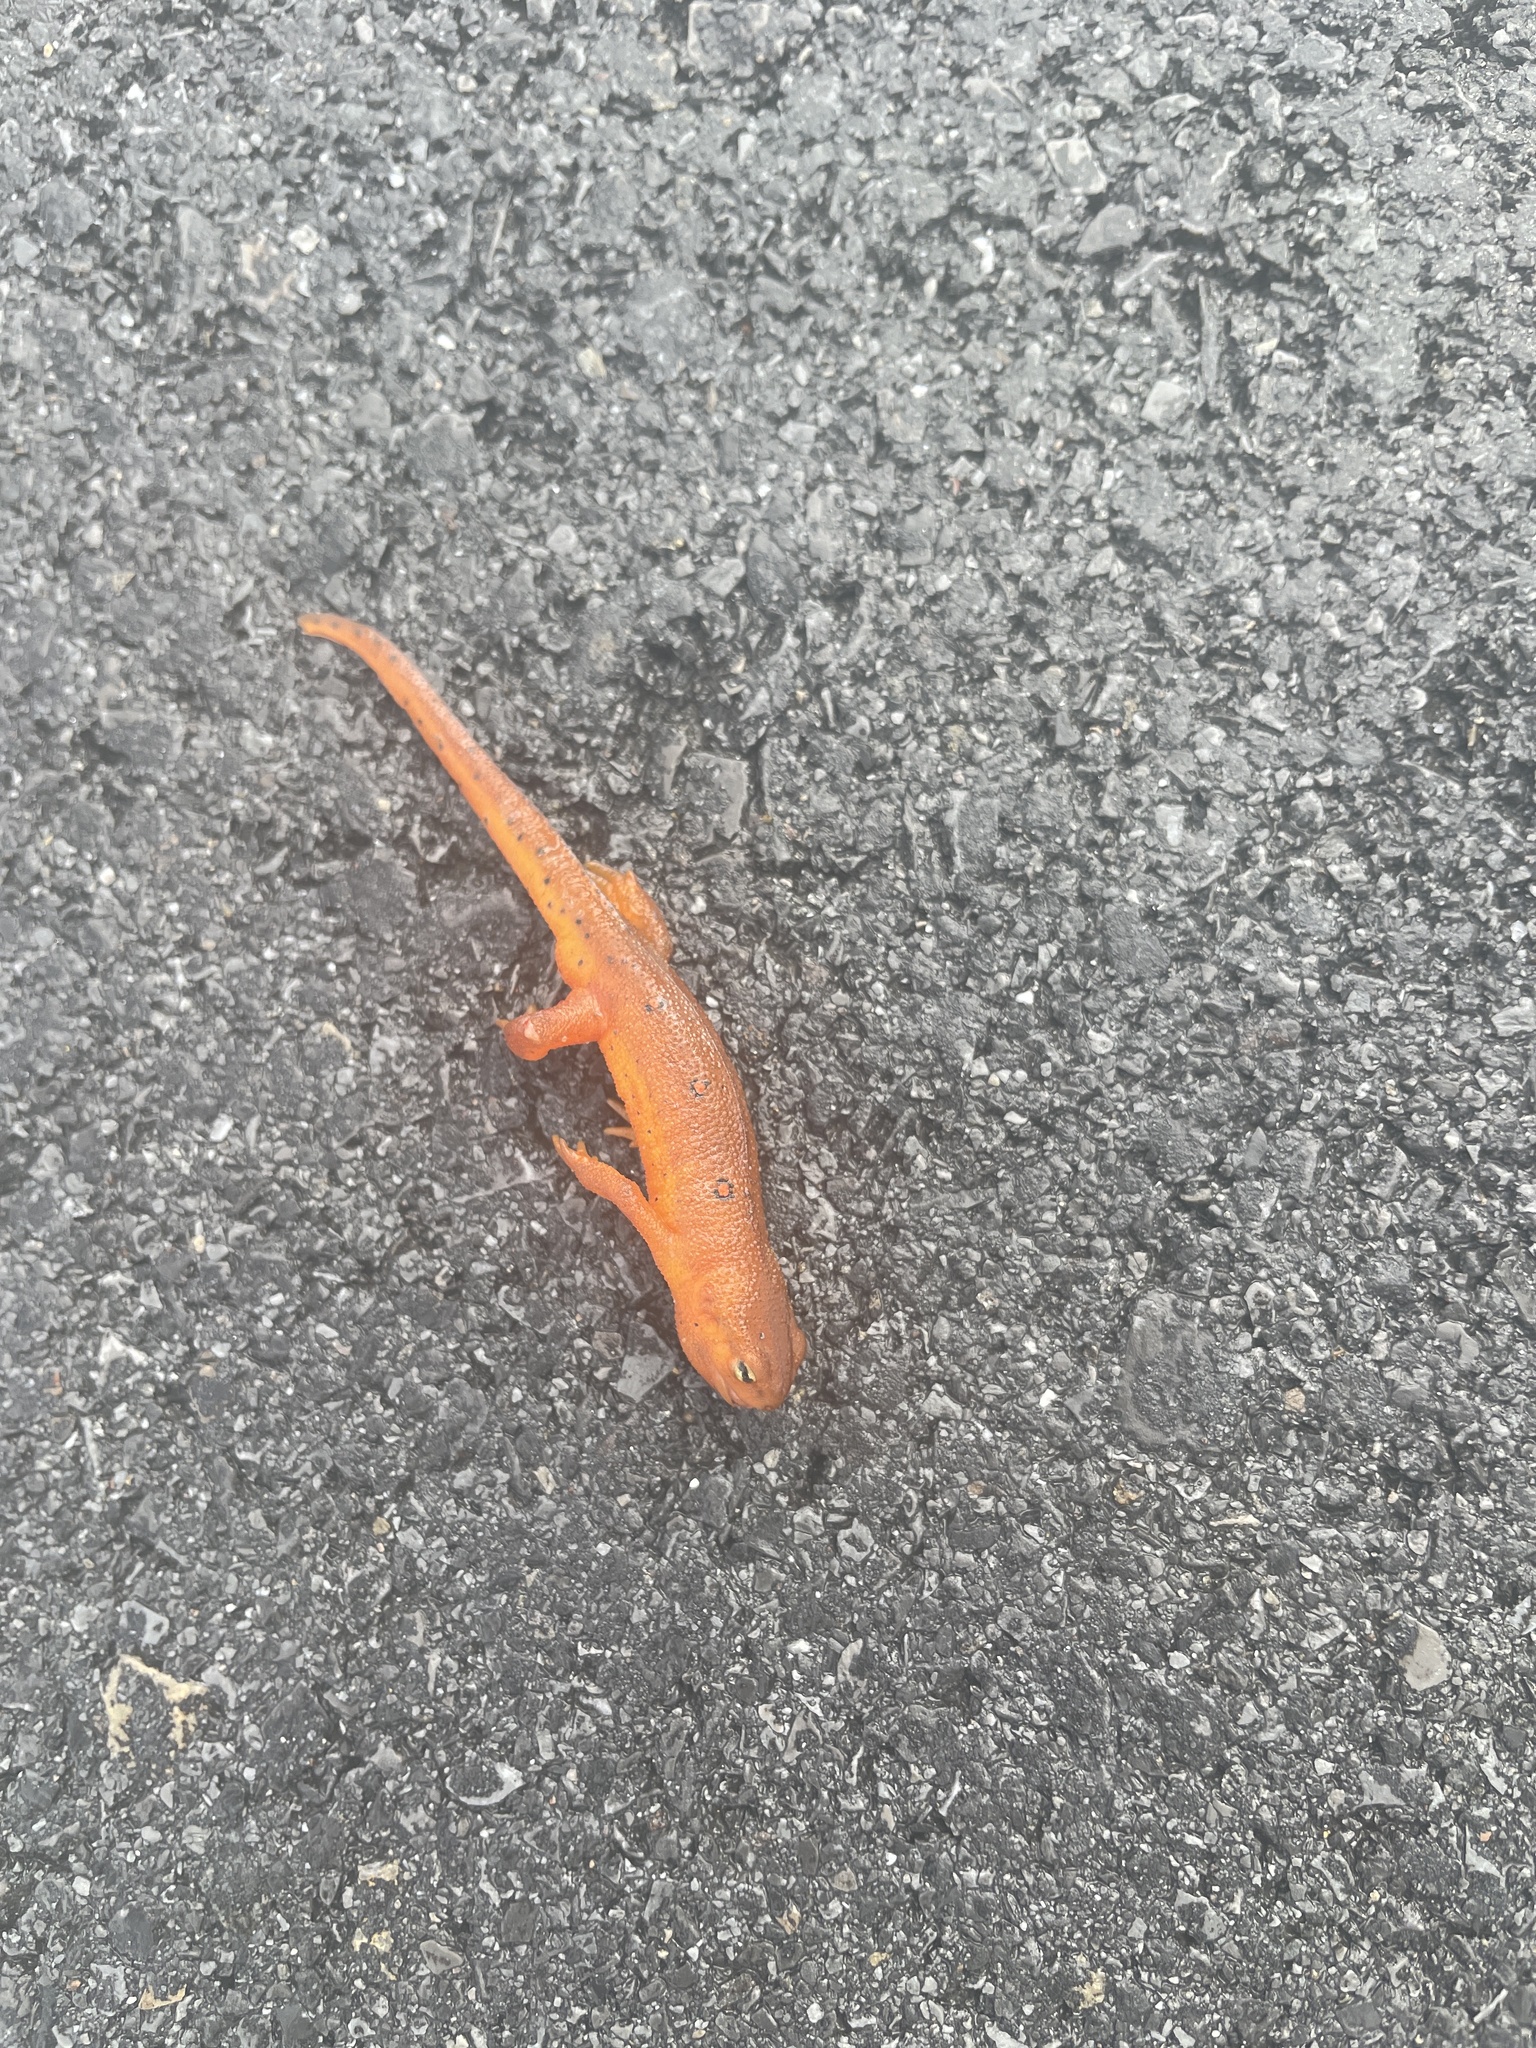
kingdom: Animalia
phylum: Chordata
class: Amphibia
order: Caudata
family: Salamandridae
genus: Notophthalmus
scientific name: Notophthalmus viridescens
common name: Eastern newt
